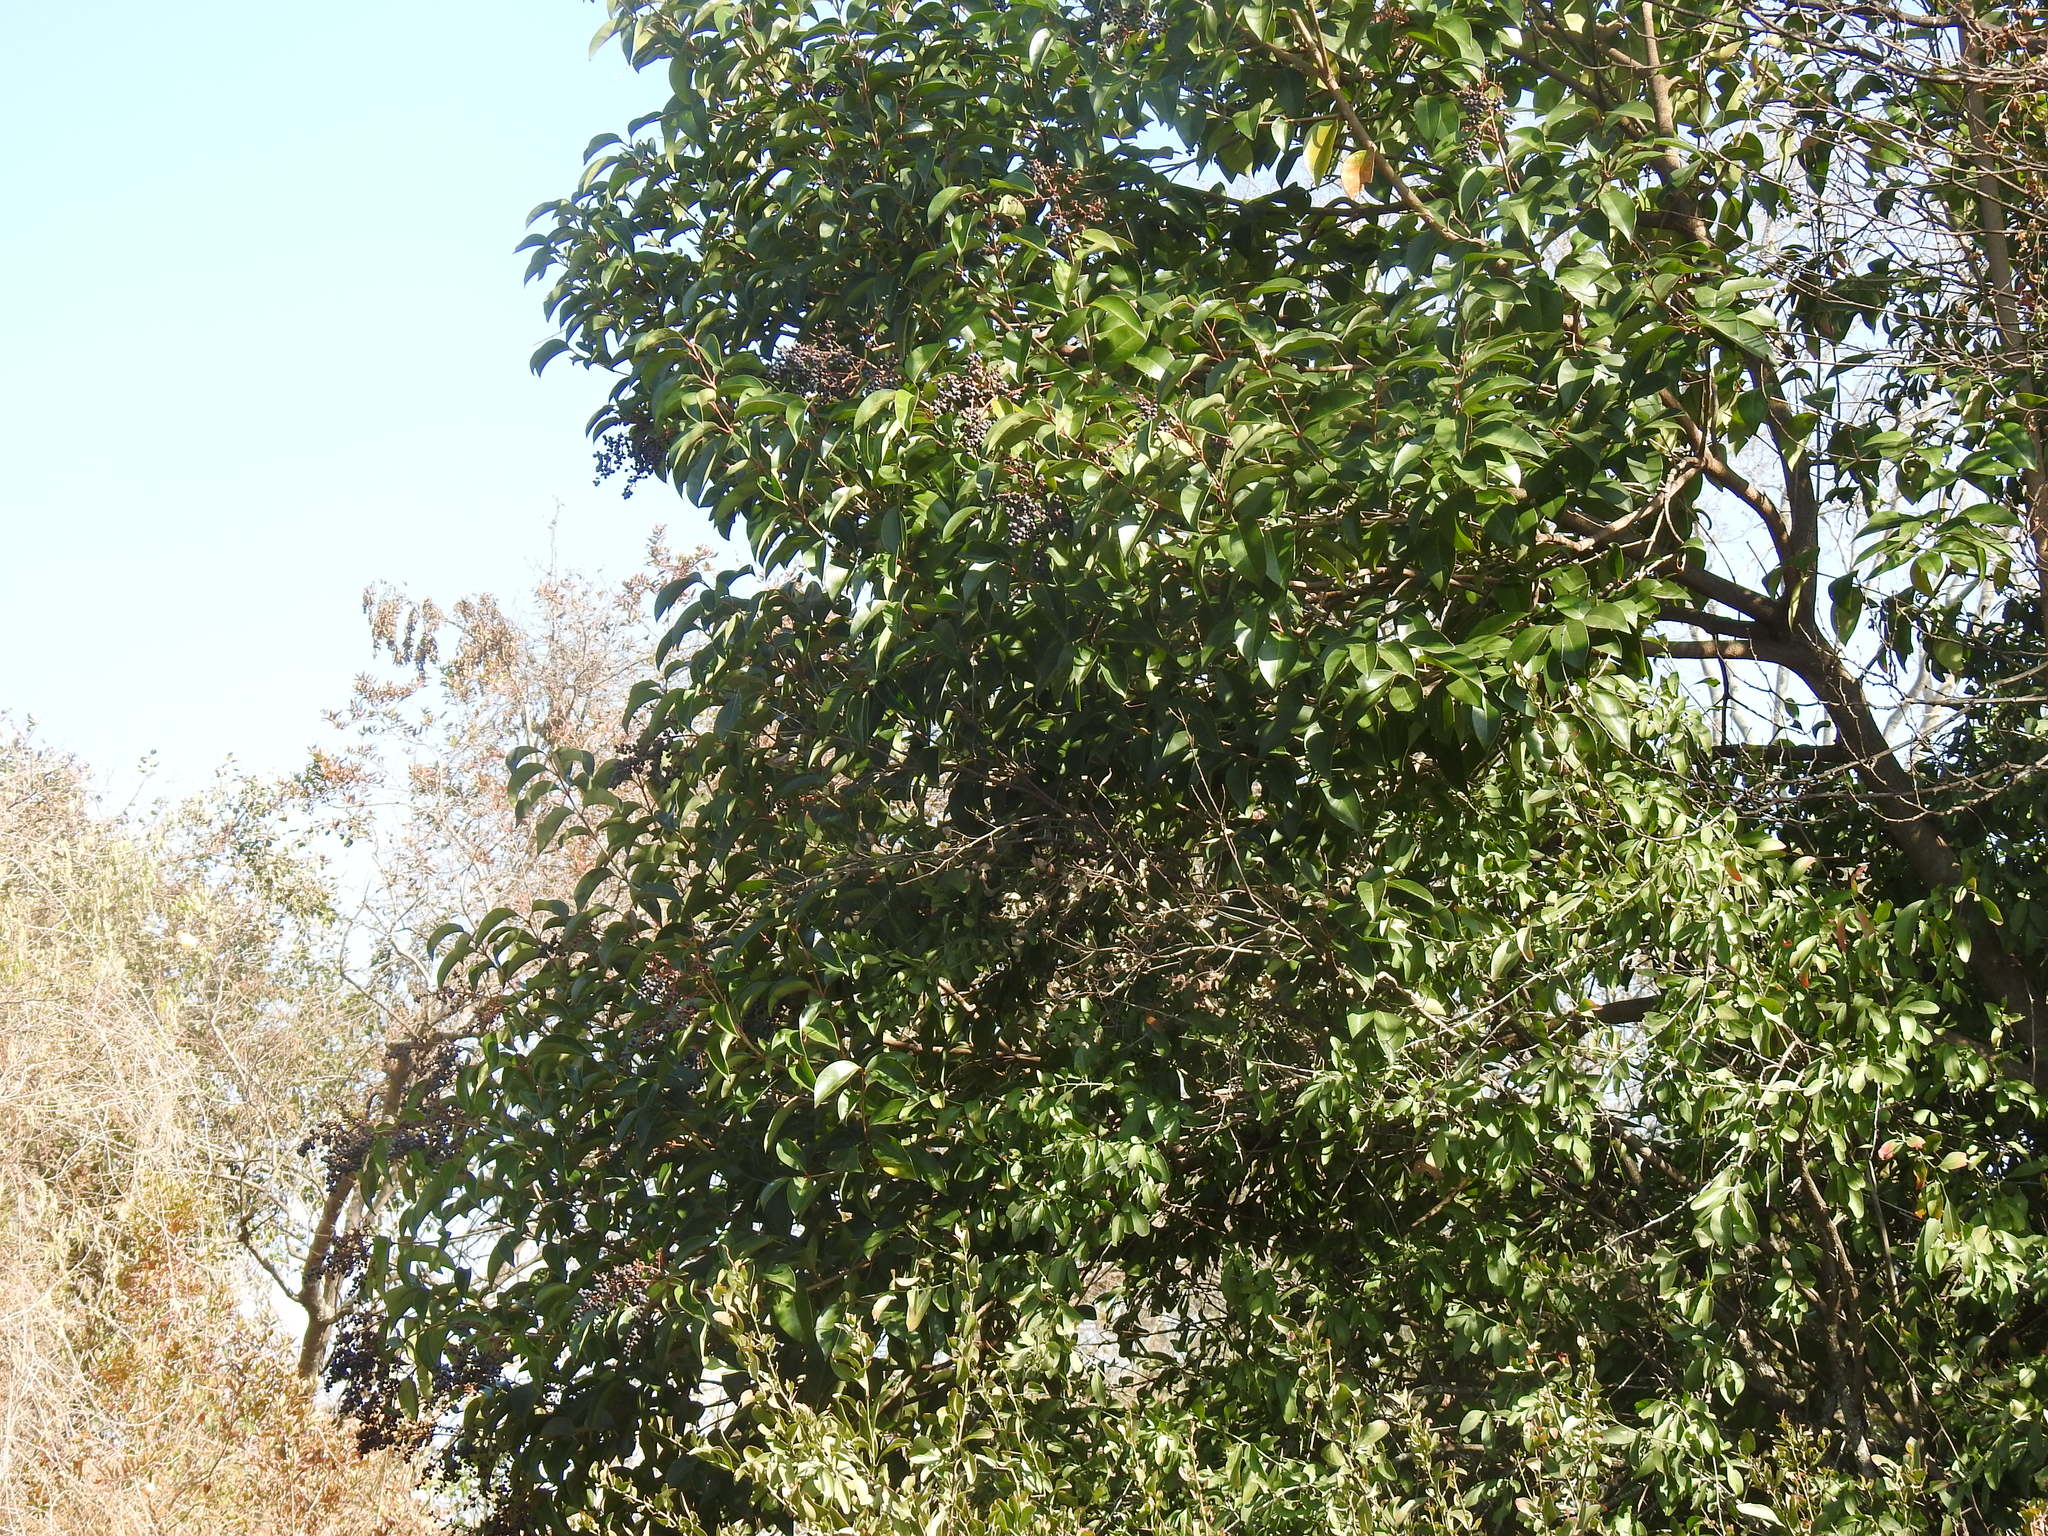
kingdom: Plantae
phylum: Tracheophyta
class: Magnoliopsida
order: Lamiales
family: Oleaceae
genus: Ligustrum
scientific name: Ligustrum lucidum
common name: Glossy privet
